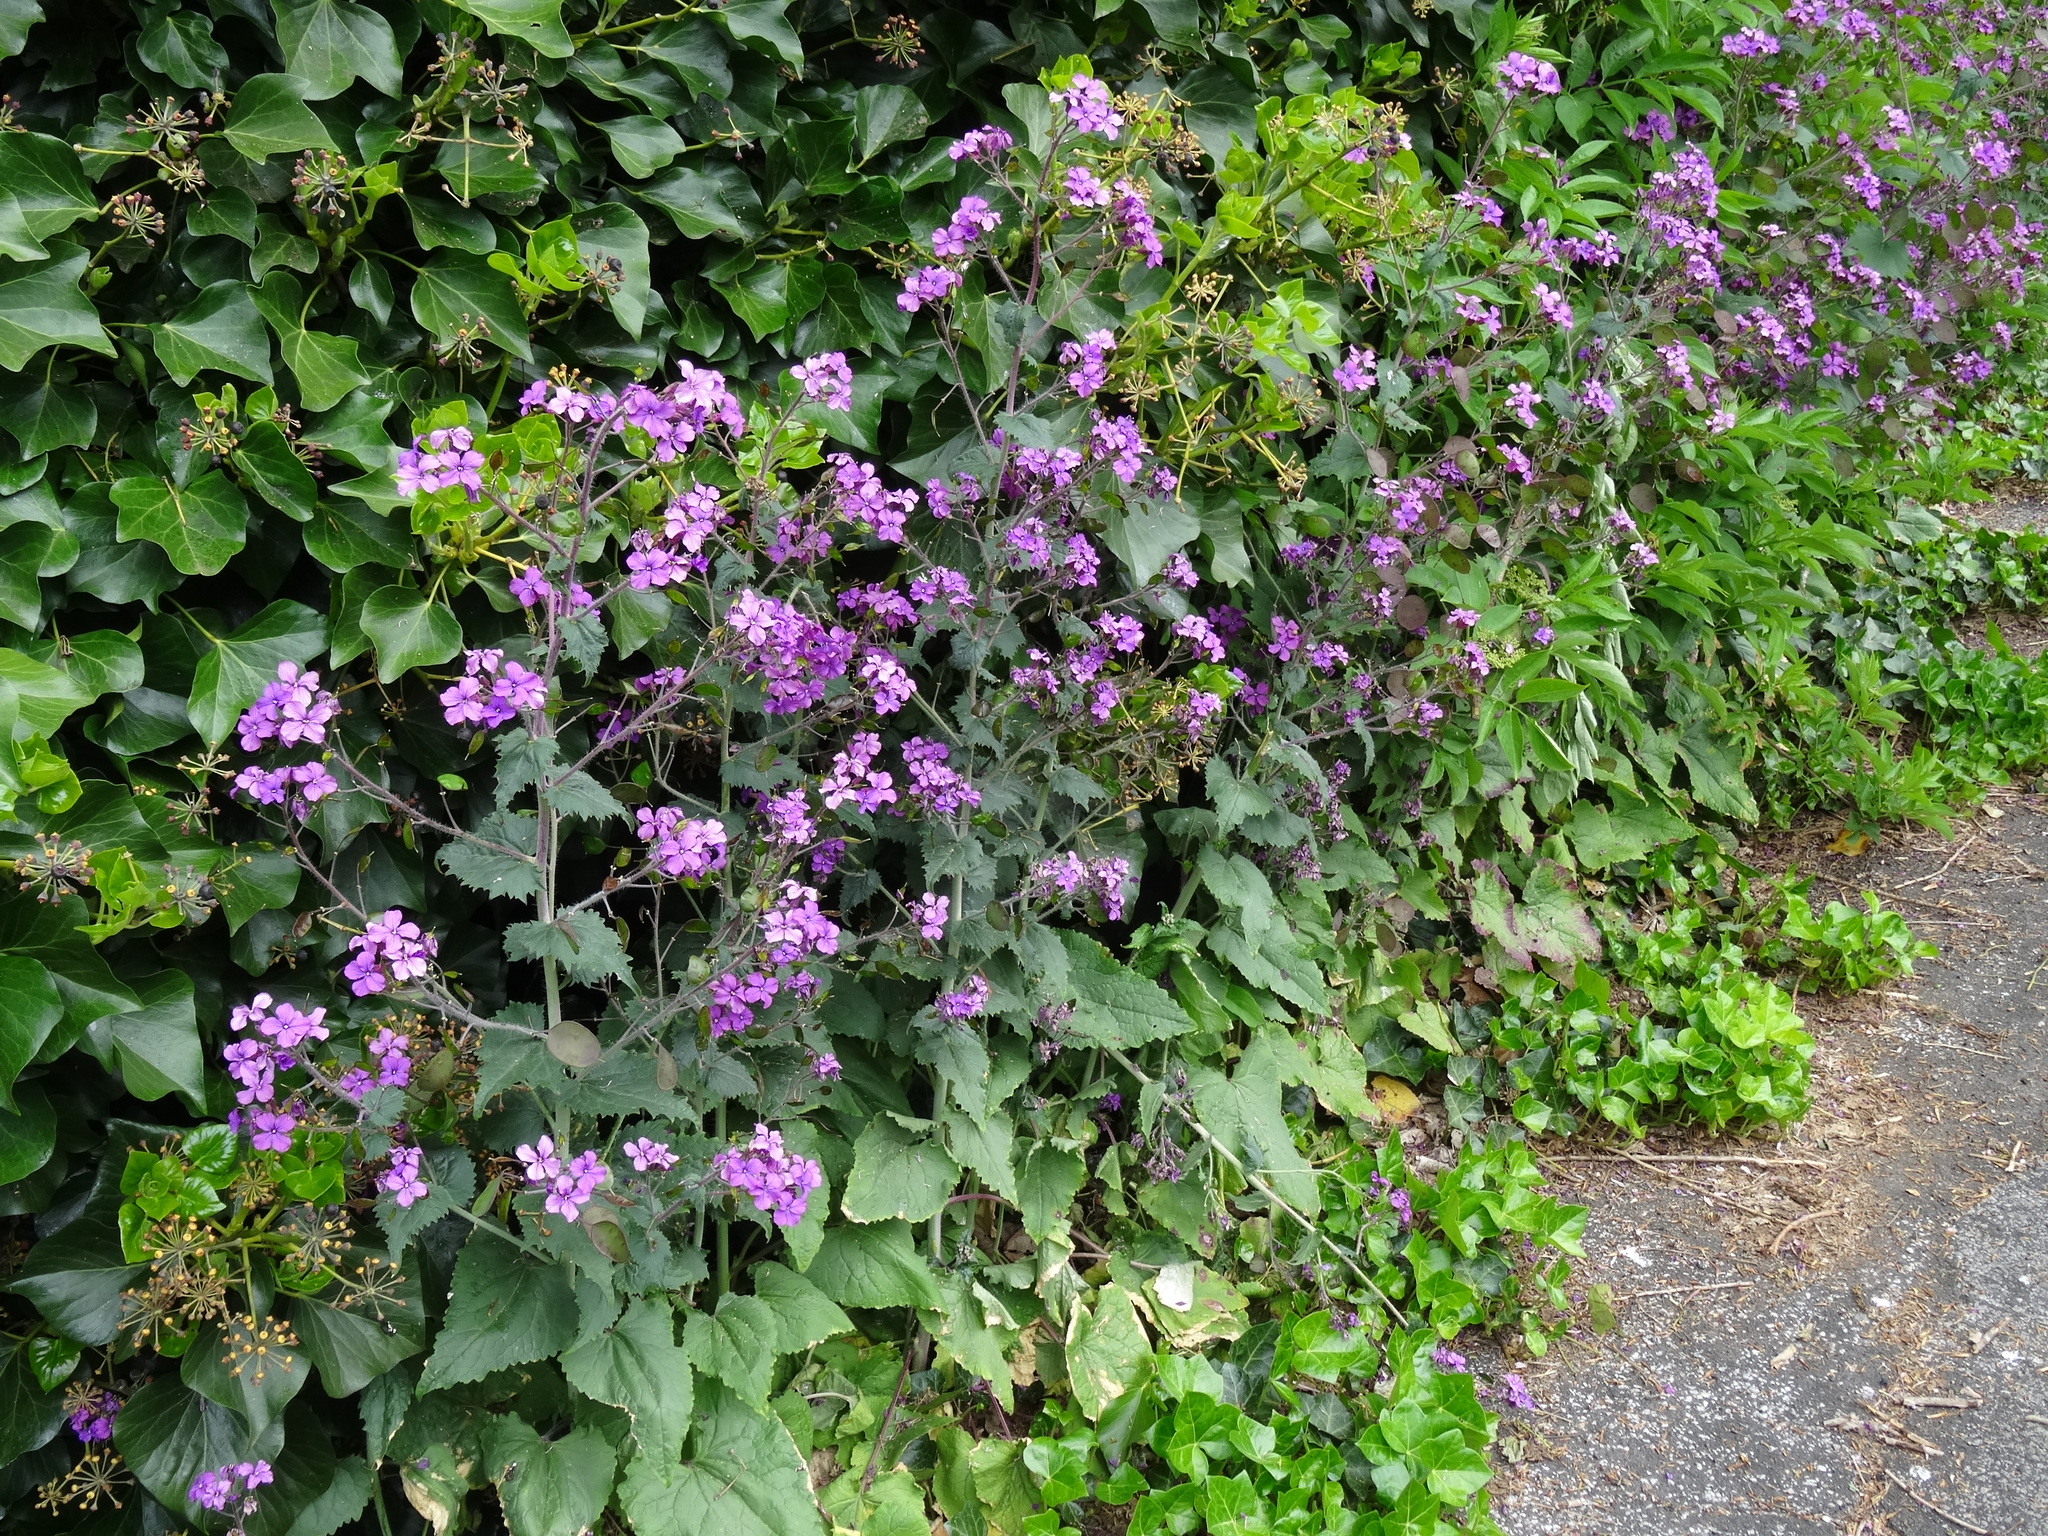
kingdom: Plantae
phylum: Tracheophyta
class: Magnoliopsida
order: Brassicales
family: Brassicaceae
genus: Lunaria
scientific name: Lunaria annua
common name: Honesty
